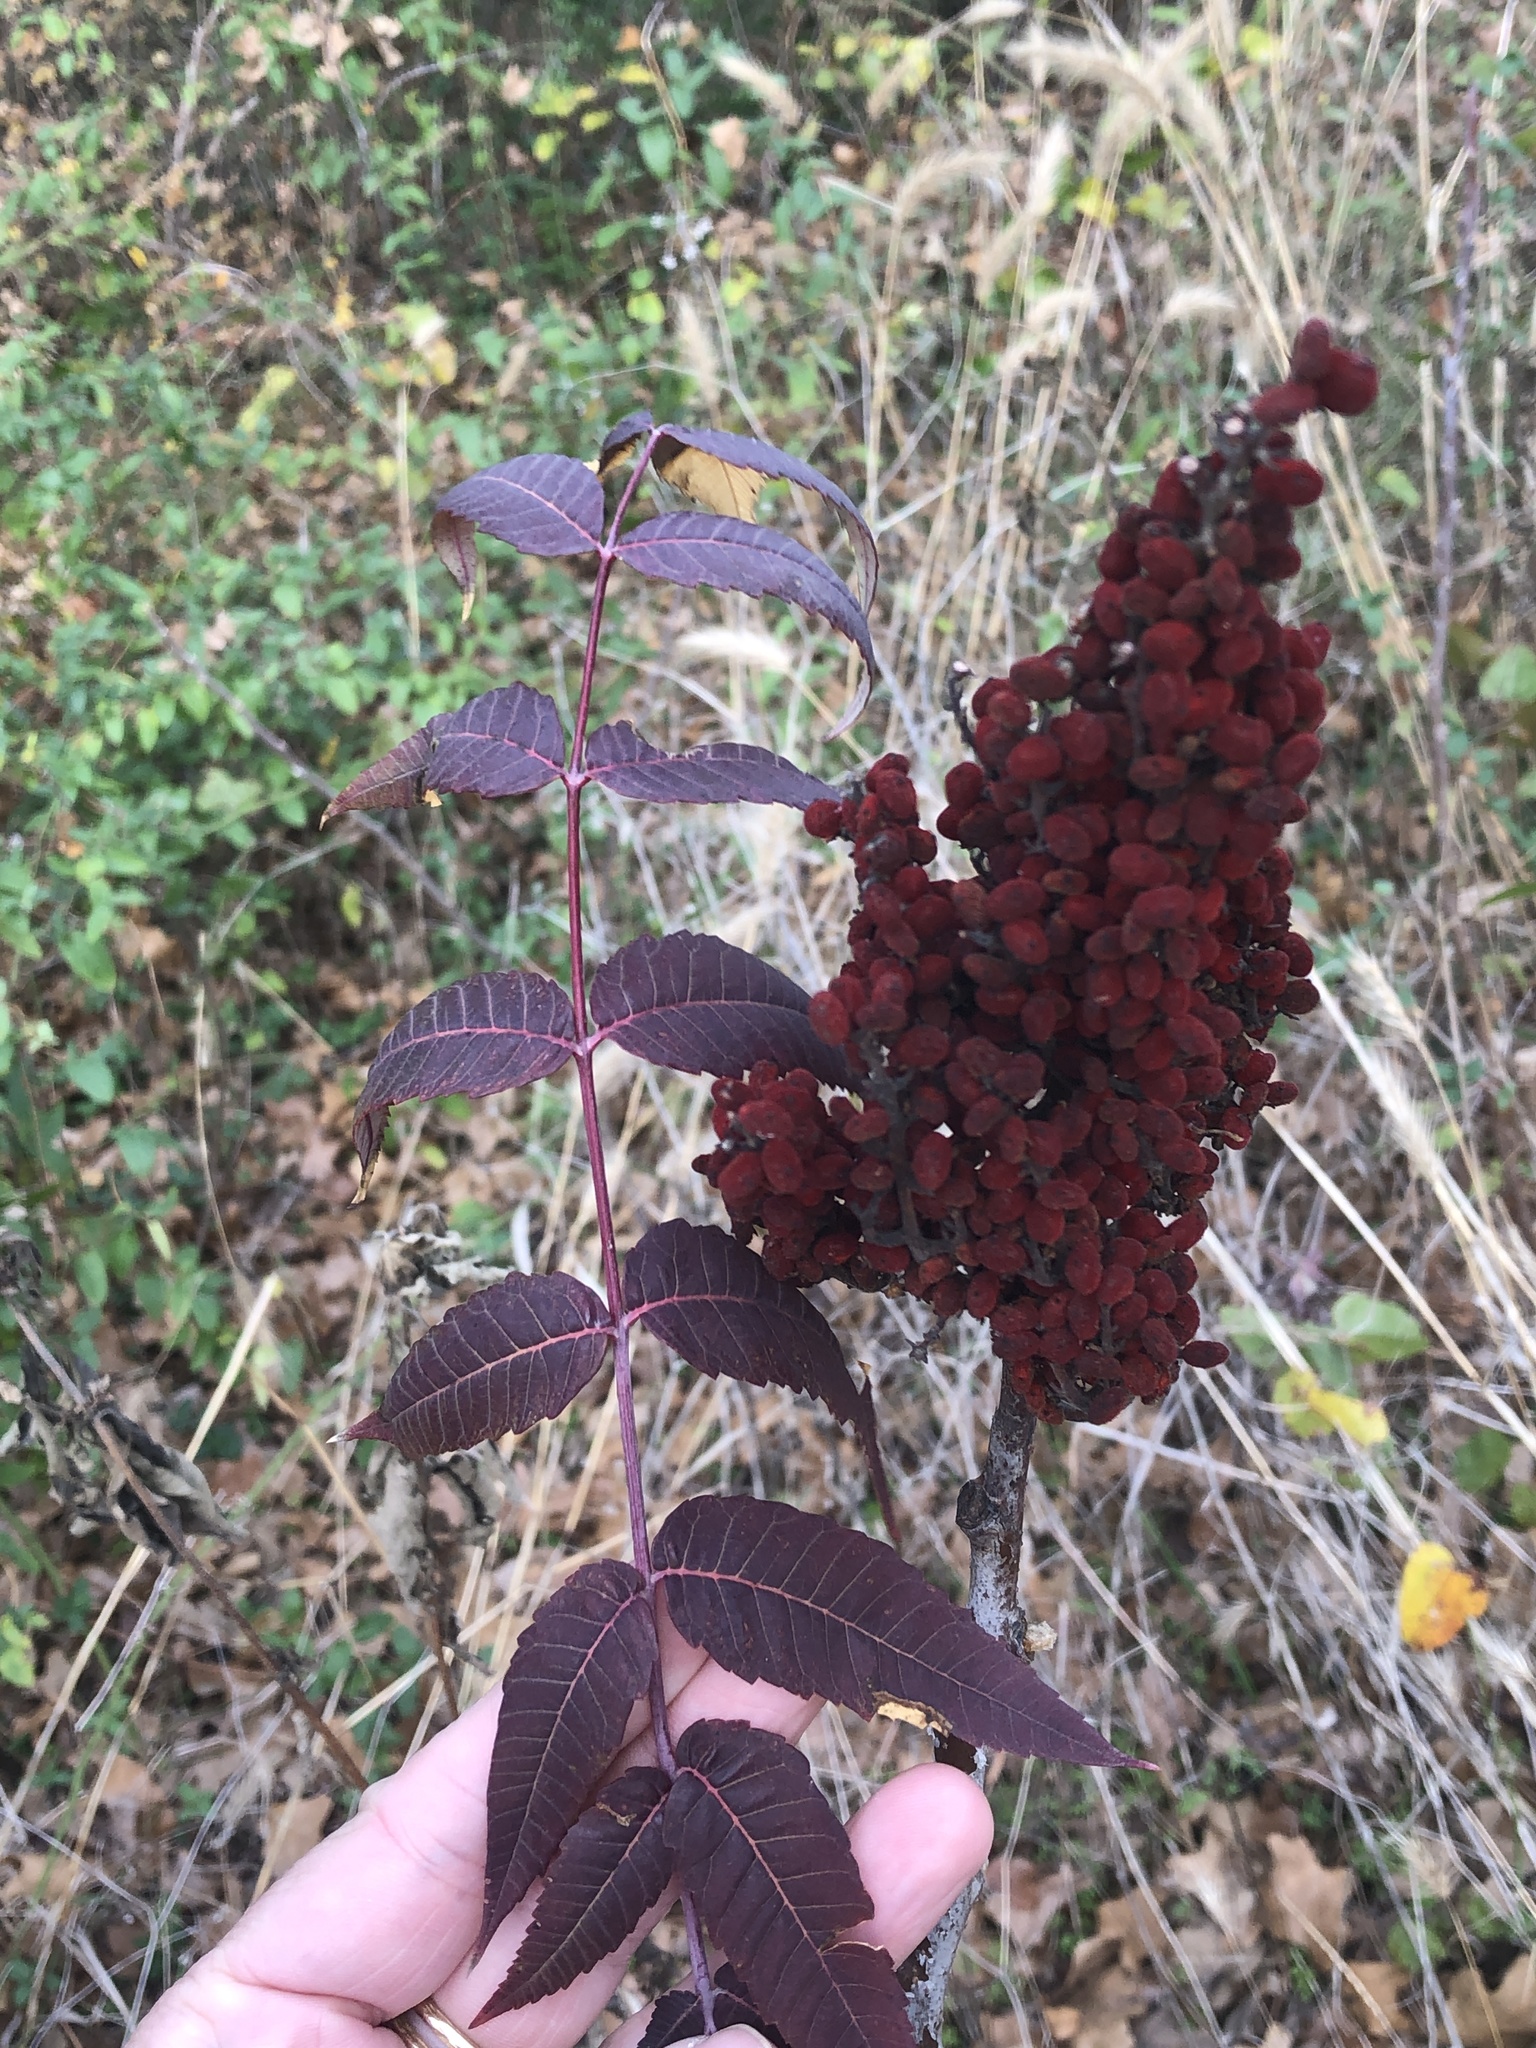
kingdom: Plantae
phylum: Tracheophyta
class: Magnoliopsida
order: Sapindales
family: Anacardiaceae
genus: Rhus
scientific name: Rhus glabra
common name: Scarlet sumac
